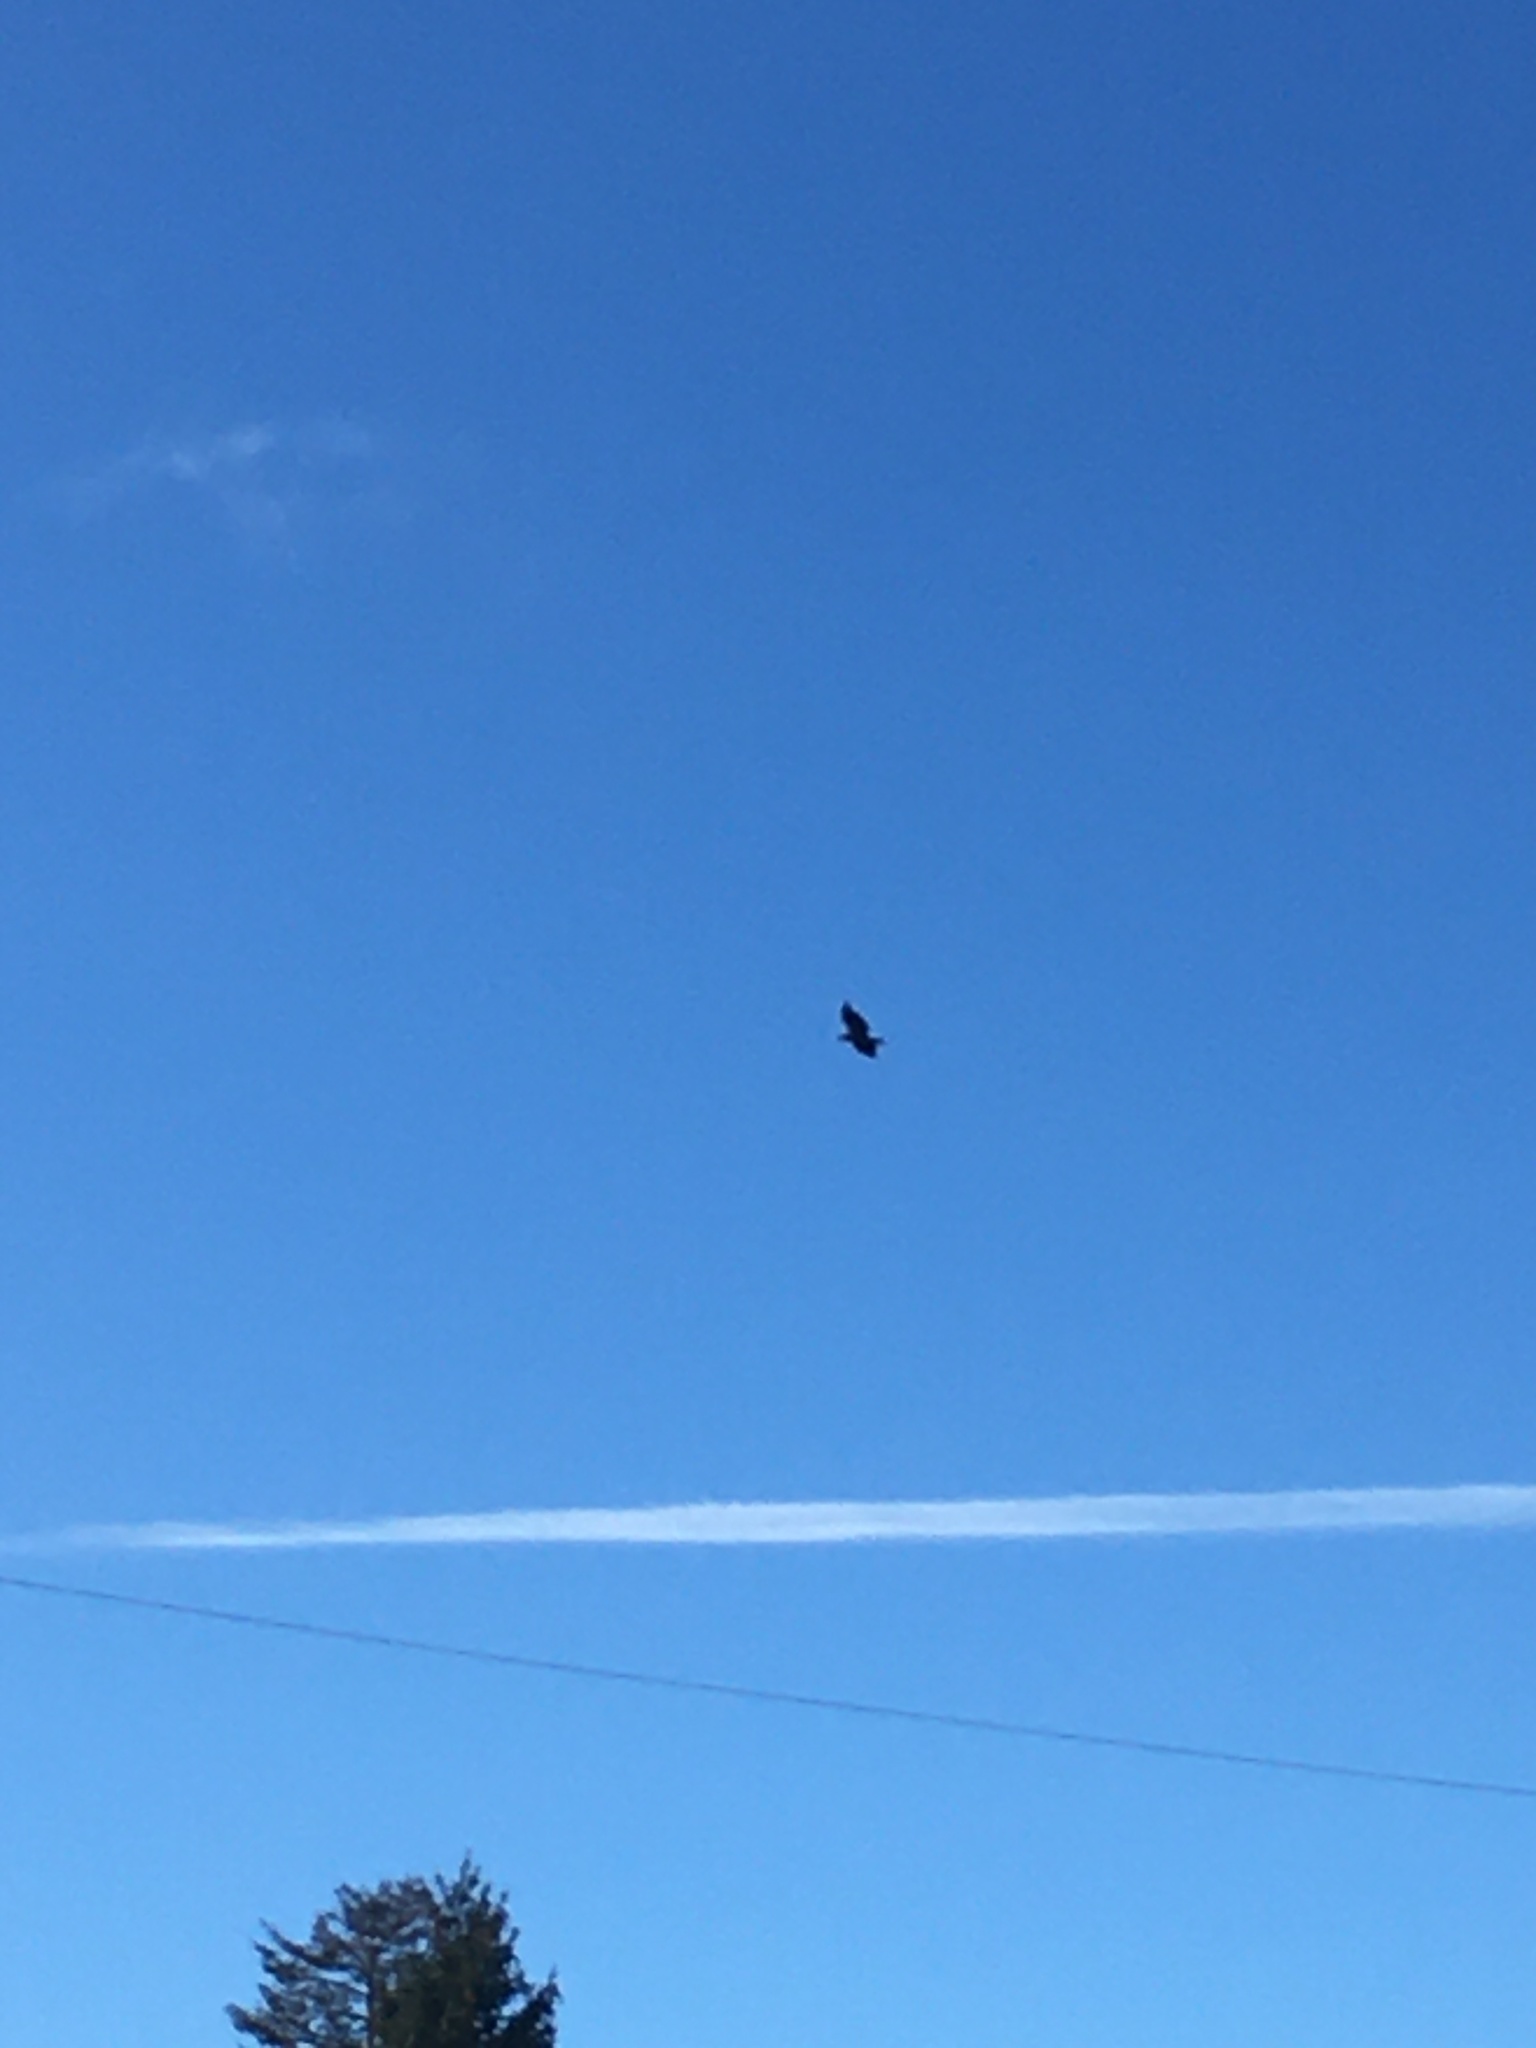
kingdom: Animalia
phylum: Chordata
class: Aves
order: Accipitriformes
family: Accipitridae
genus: Haliaeetus
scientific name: Haliaeetus leucocephalus
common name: Bald eagle
